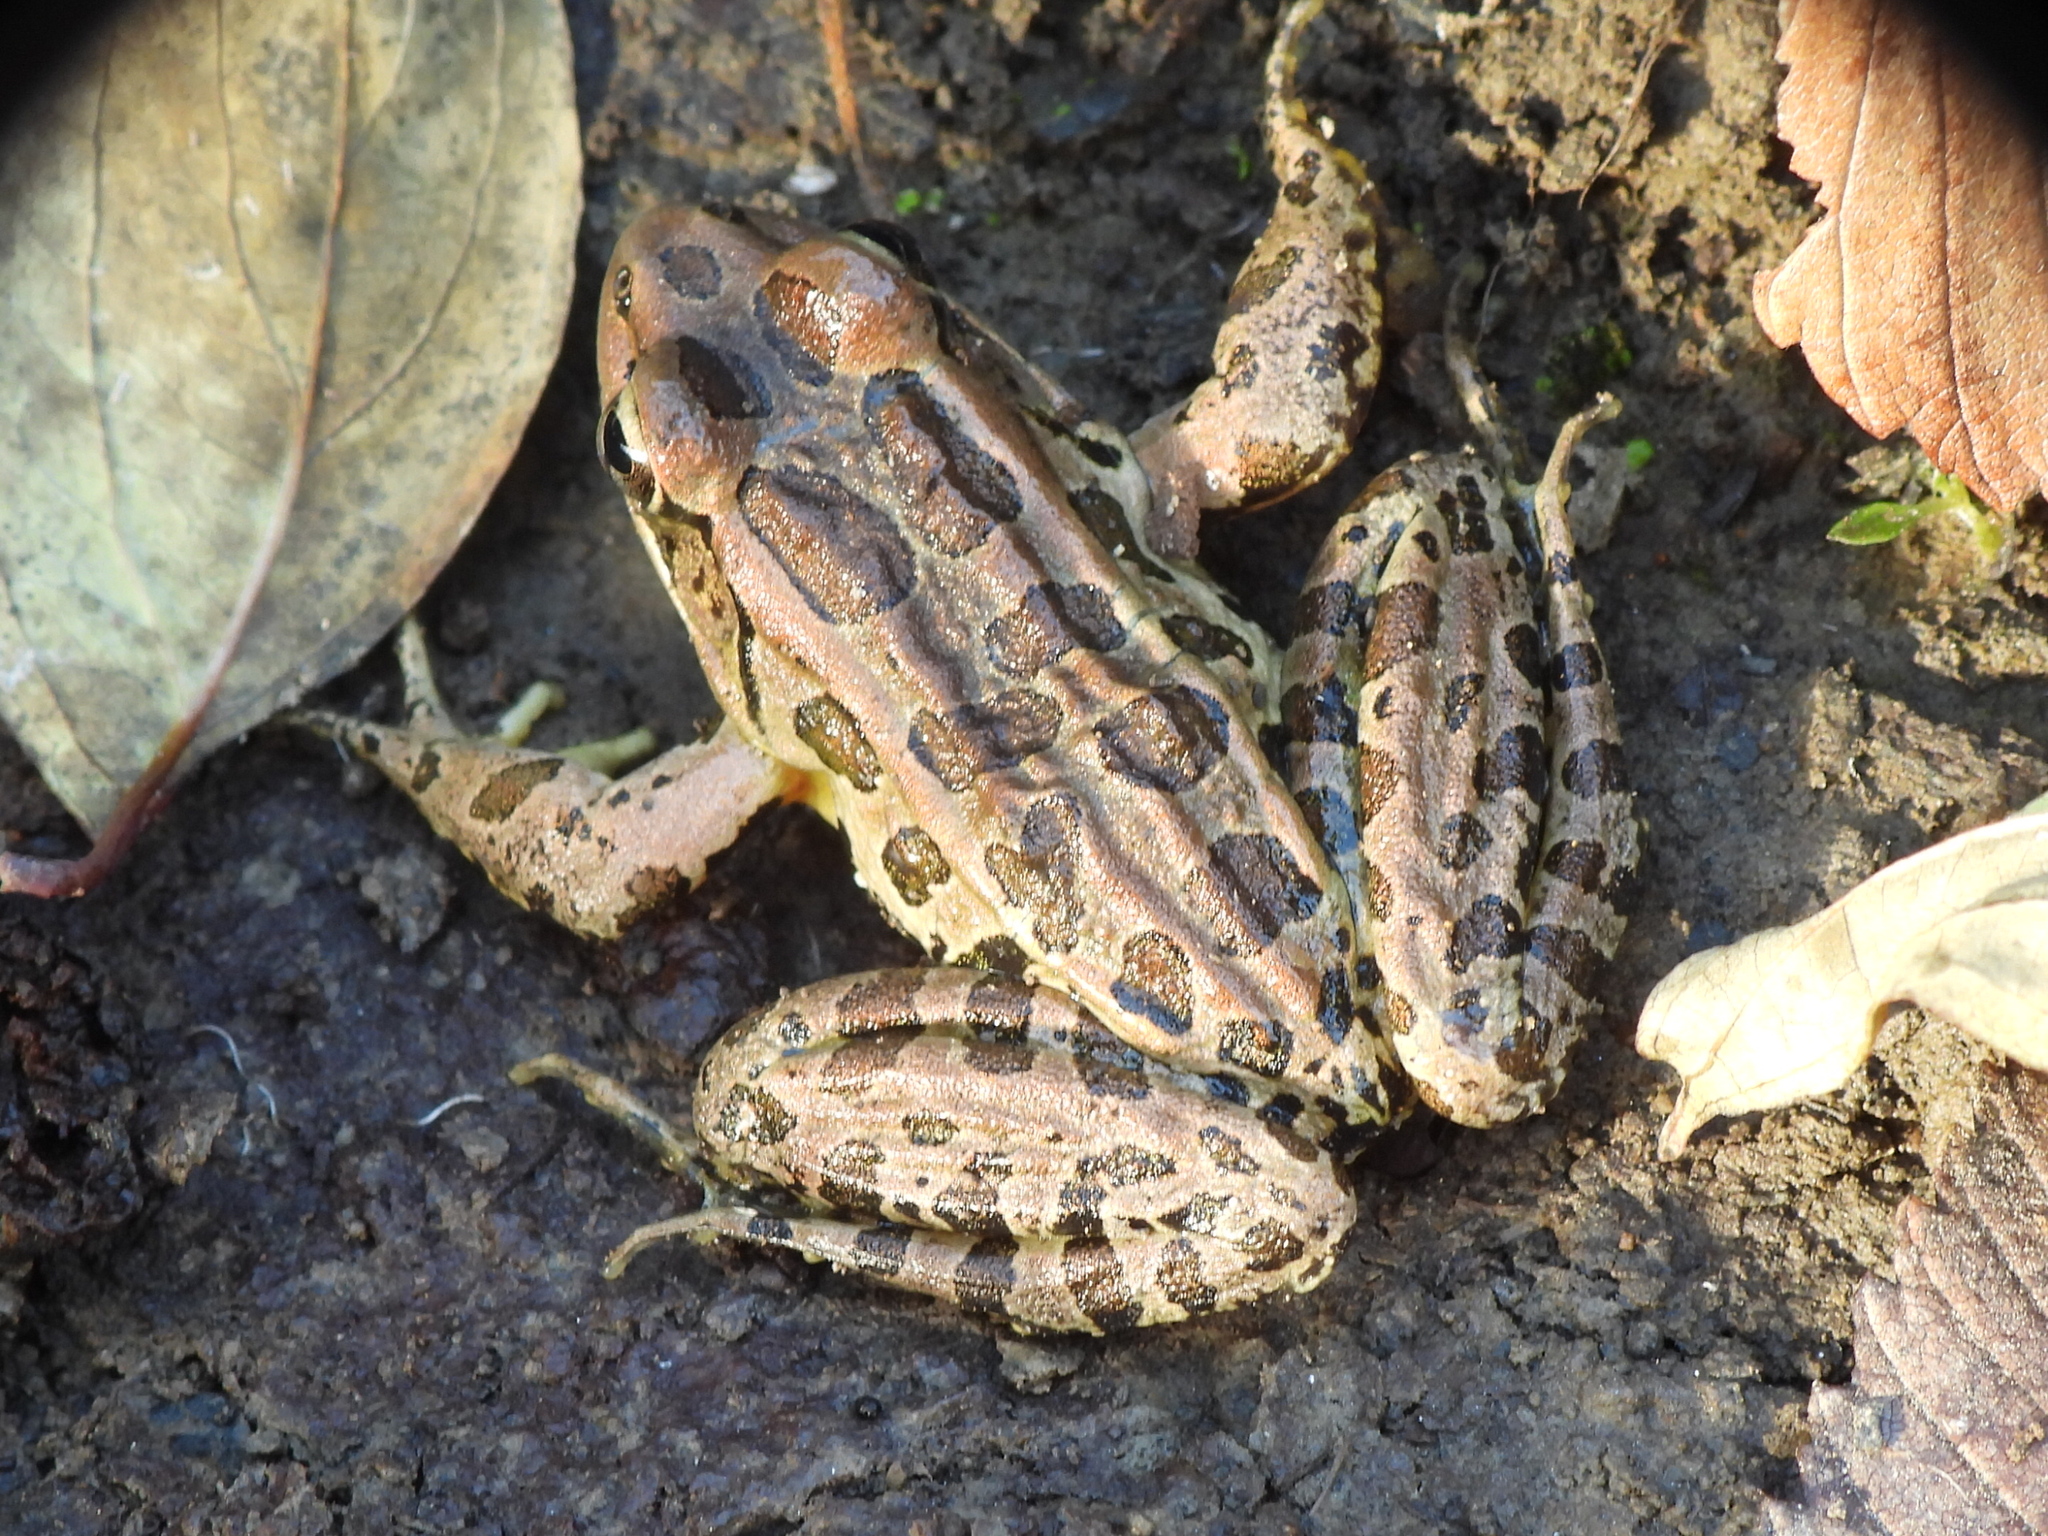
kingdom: Animalia
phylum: Chordata
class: Amphibia
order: Anura
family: Ranidae
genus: Lithobates
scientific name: Lithobates palustris
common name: Pickerel frog
